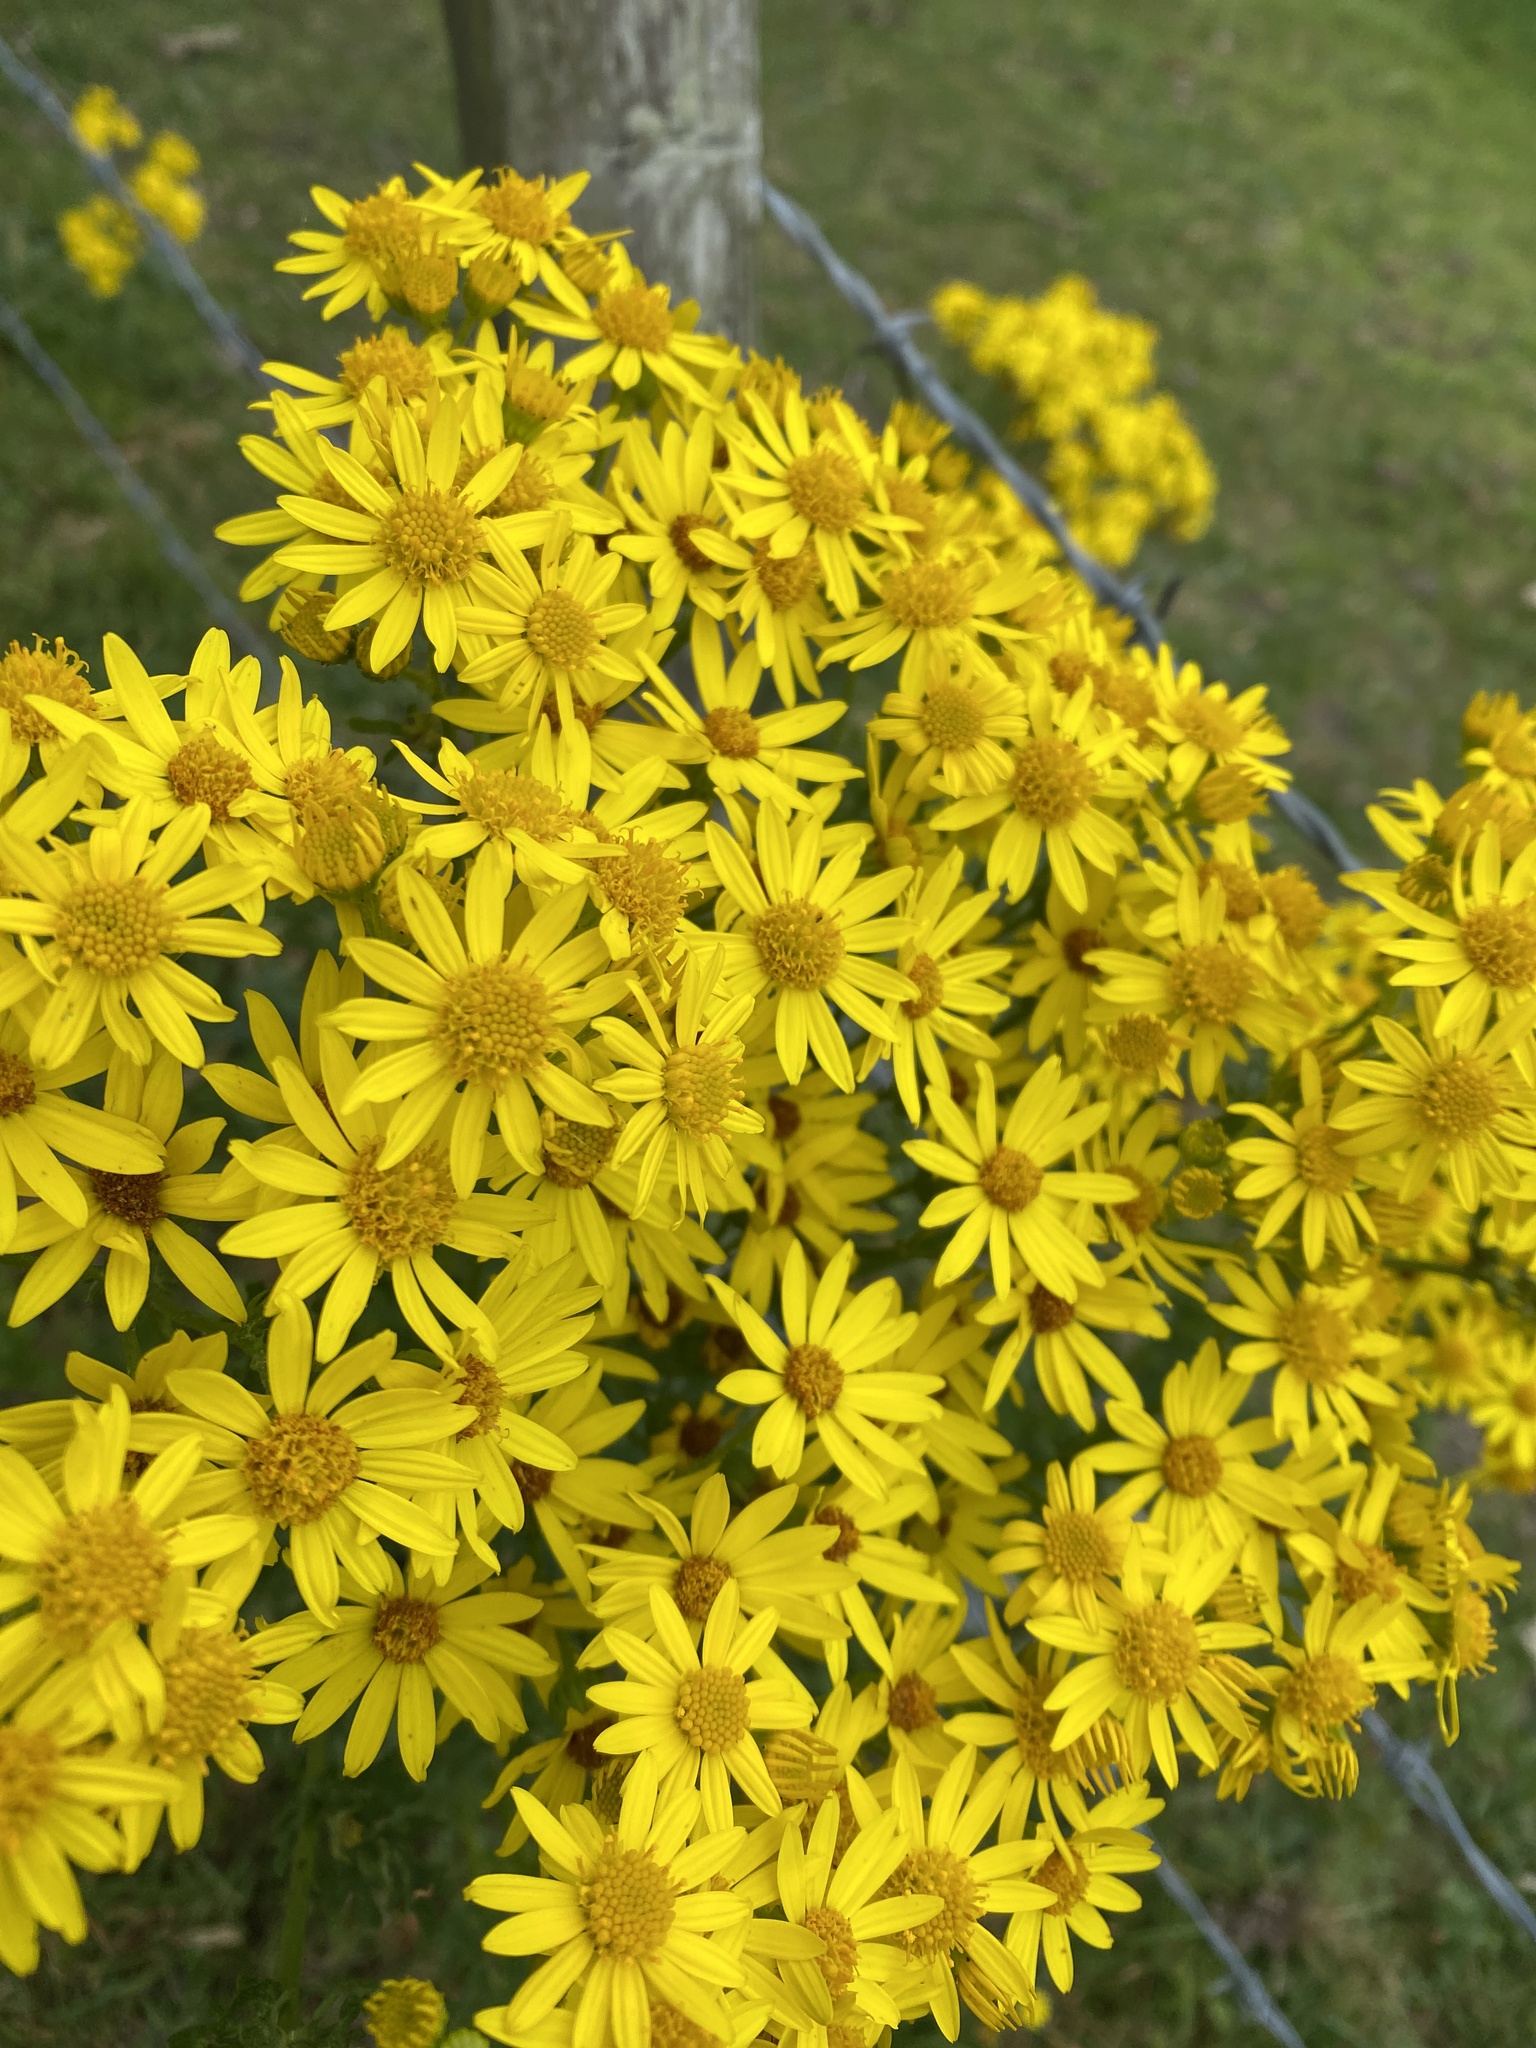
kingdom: Plantae
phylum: Tracheophyta
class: Magnoliopsida
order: Asterales
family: Asteraceae
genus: Jacobaea
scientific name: Jacobaea vulgaris
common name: Stinking willie
